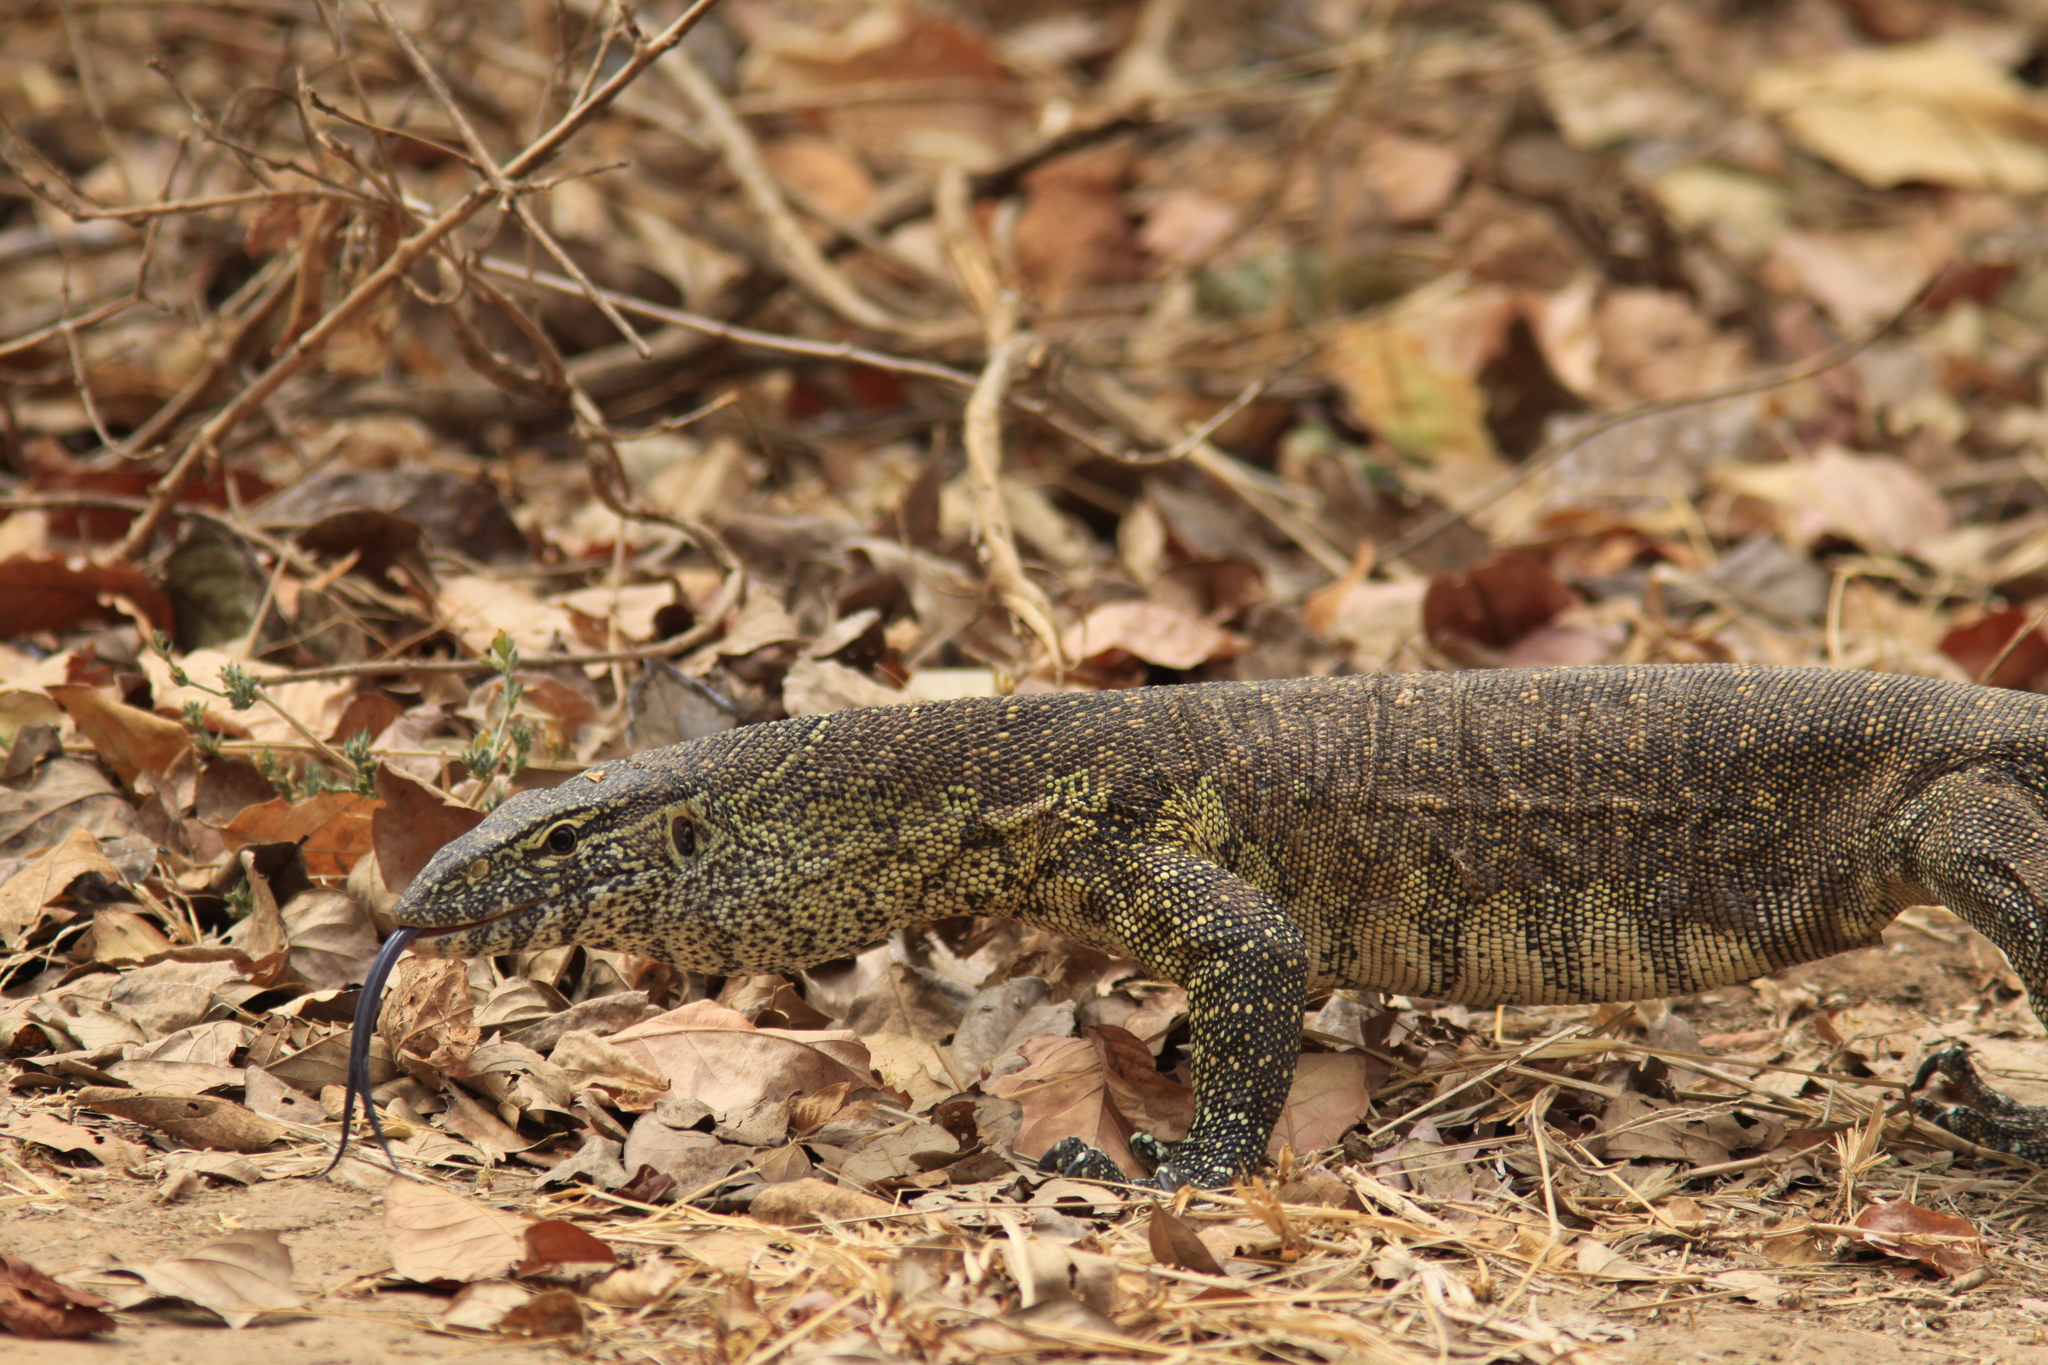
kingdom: Animalia
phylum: Chordata
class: Squamata
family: Varanidae
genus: Varanus
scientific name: Varanus niloticus
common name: Nile monitor
